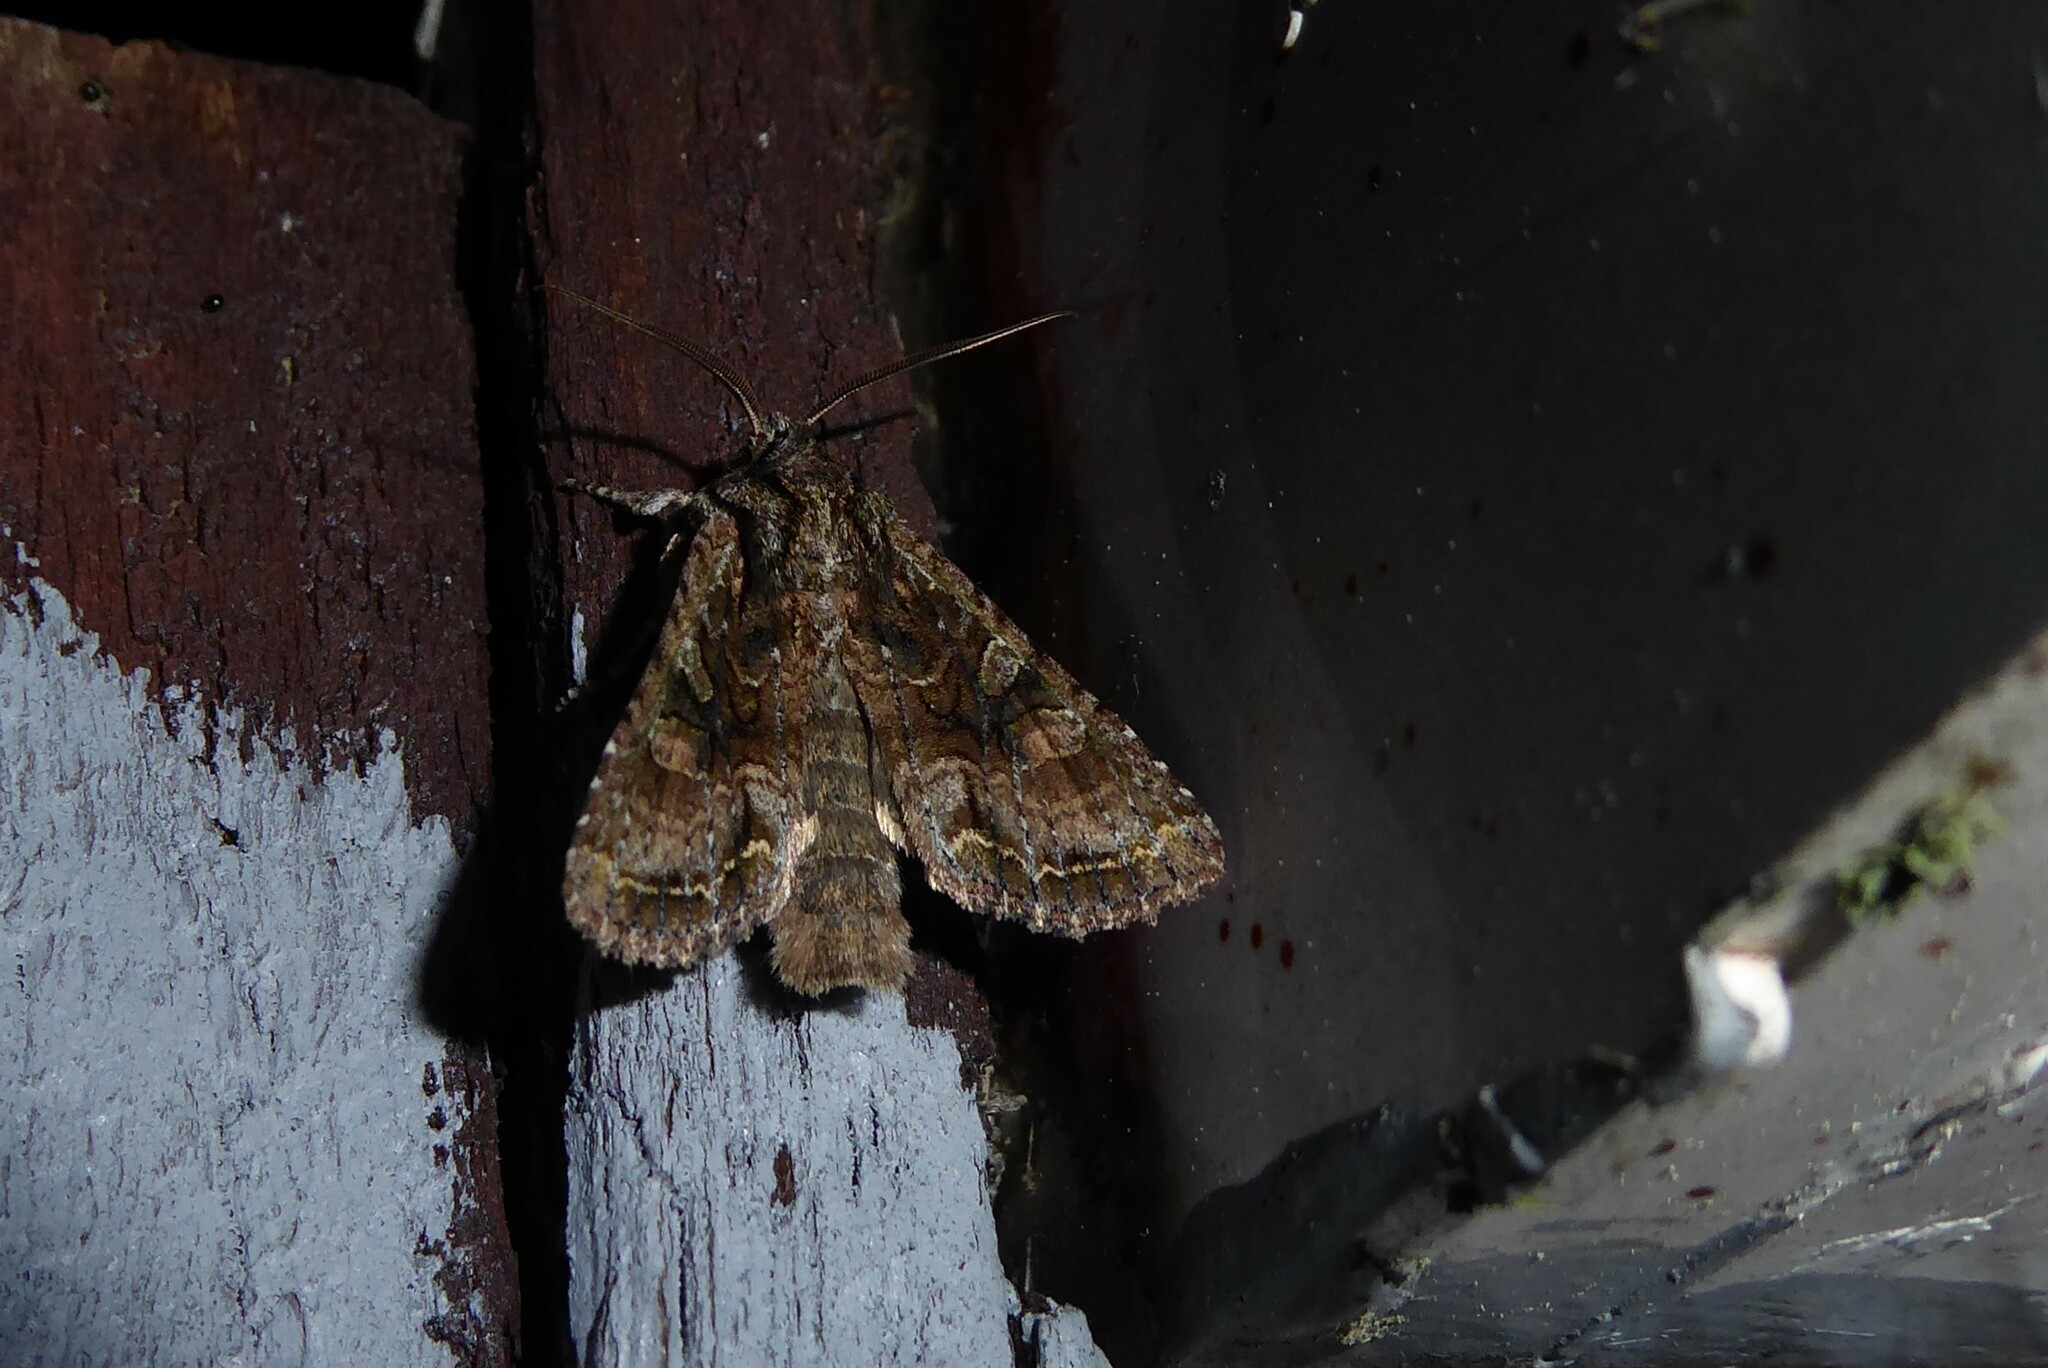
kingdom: Animalia
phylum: Arthropoda
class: Insecta
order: Lepidoptera
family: Noctuidae
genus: Ichneutica
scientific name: Ichneutica mutans
